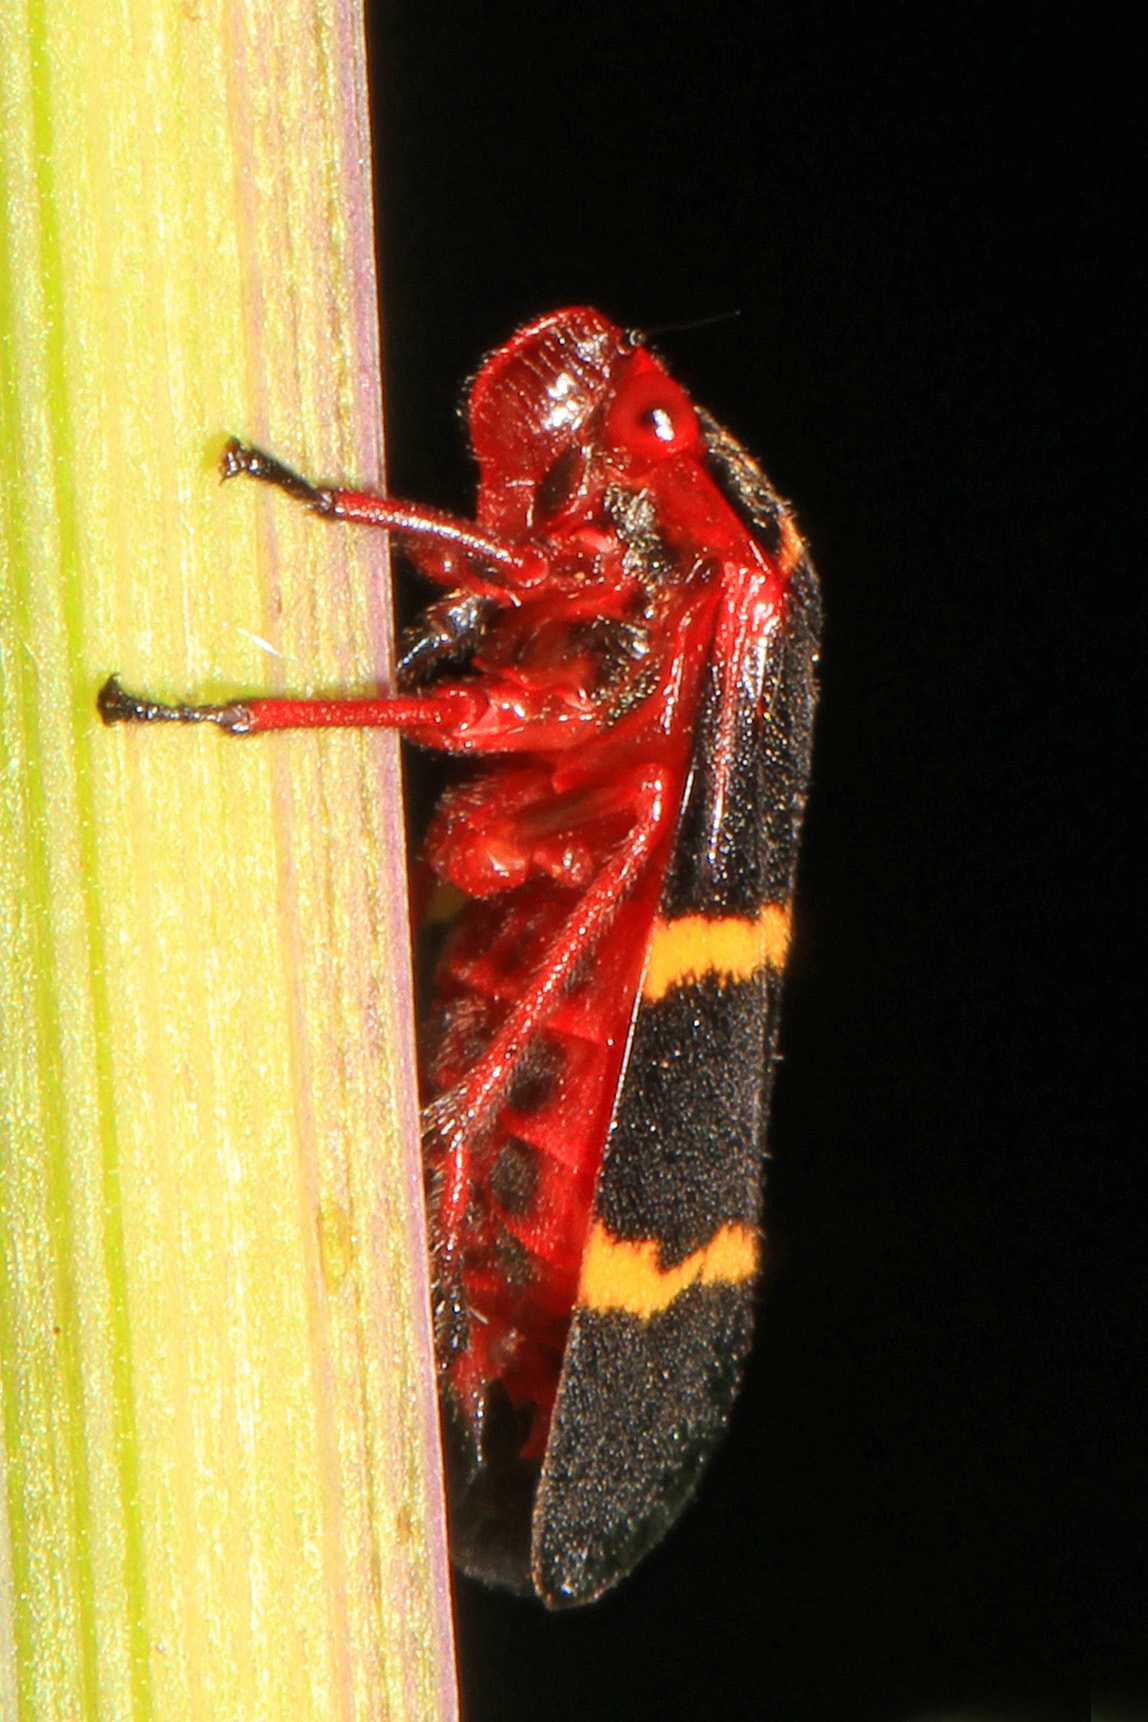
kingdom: Animalia
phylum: Arthropoda
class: Insecta
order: Hemiptera
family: Cercopidae
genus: Prosapia
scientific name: Prosapia bicincta
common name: Twolined spittlebug
